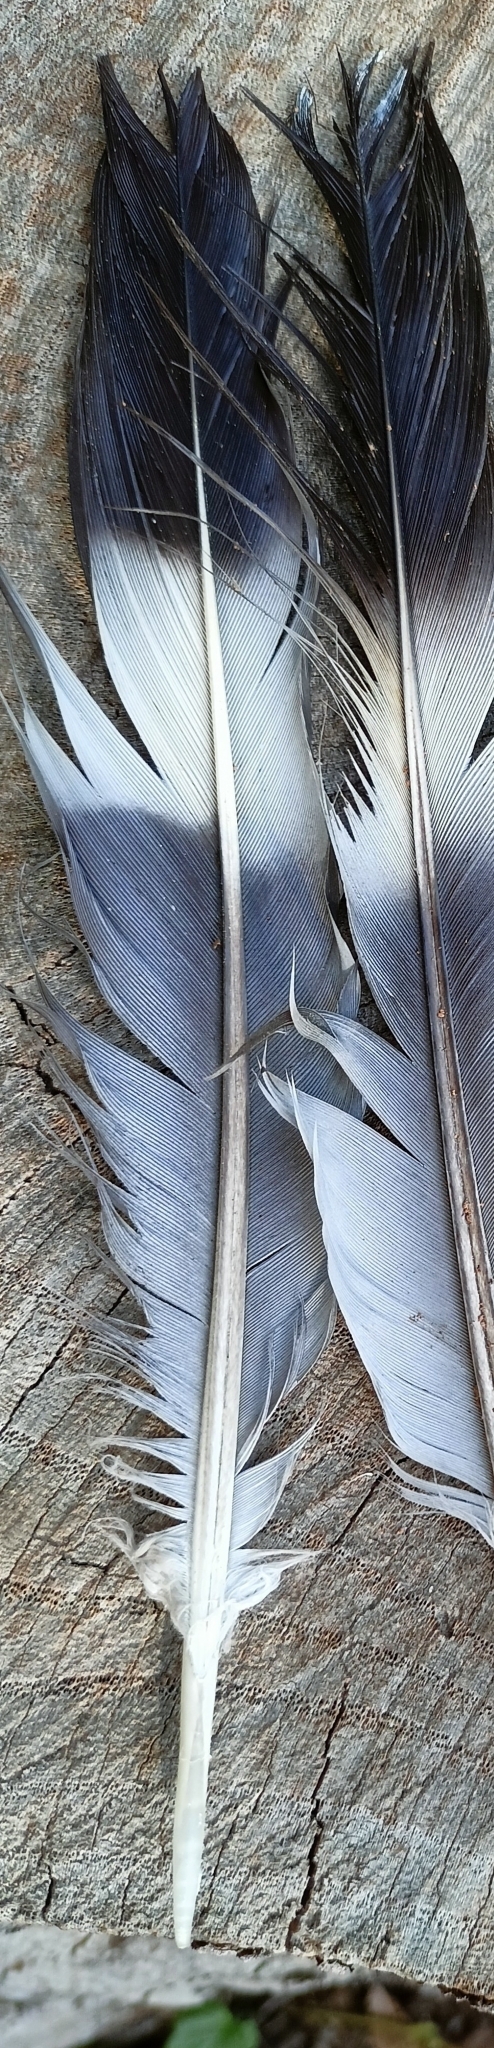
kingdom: Animalia
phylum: Chordata
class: Aves
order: Columbiformes
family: Columbidae
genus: Columba
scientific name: Columba palumbus
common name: Common wood pigeon
